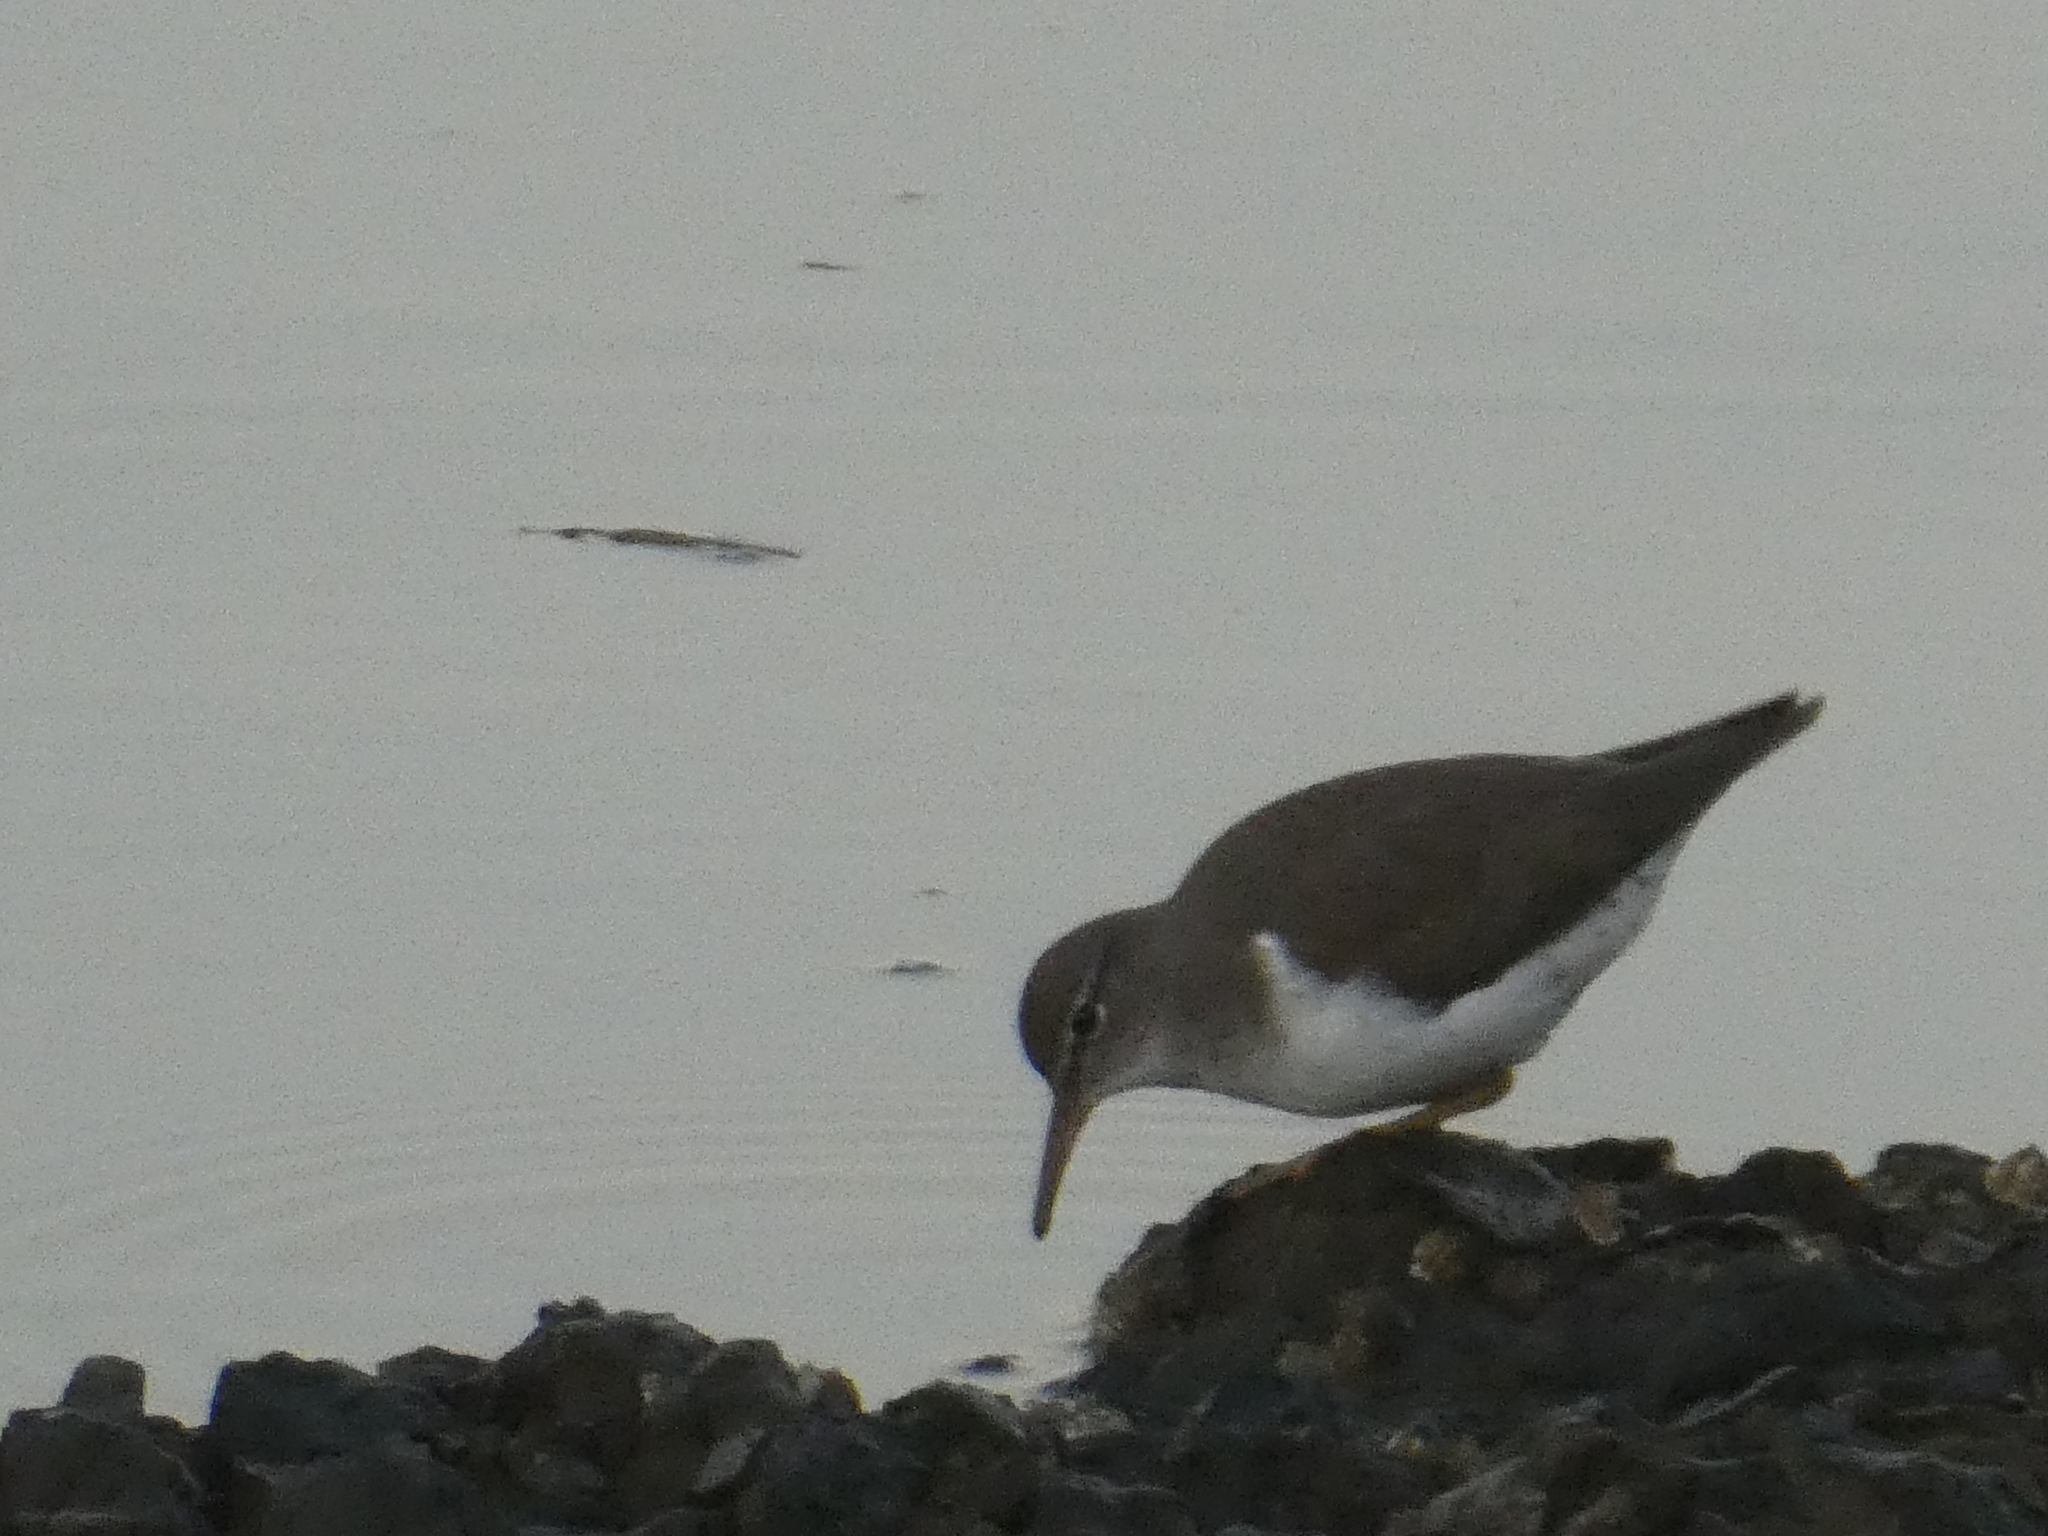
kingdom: Animalia
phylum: Chordata
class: Aves
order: Charadriiformes
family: Scolopacidae
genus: Actitis
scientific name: Actitis macularius
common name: Spotted sandpiper
